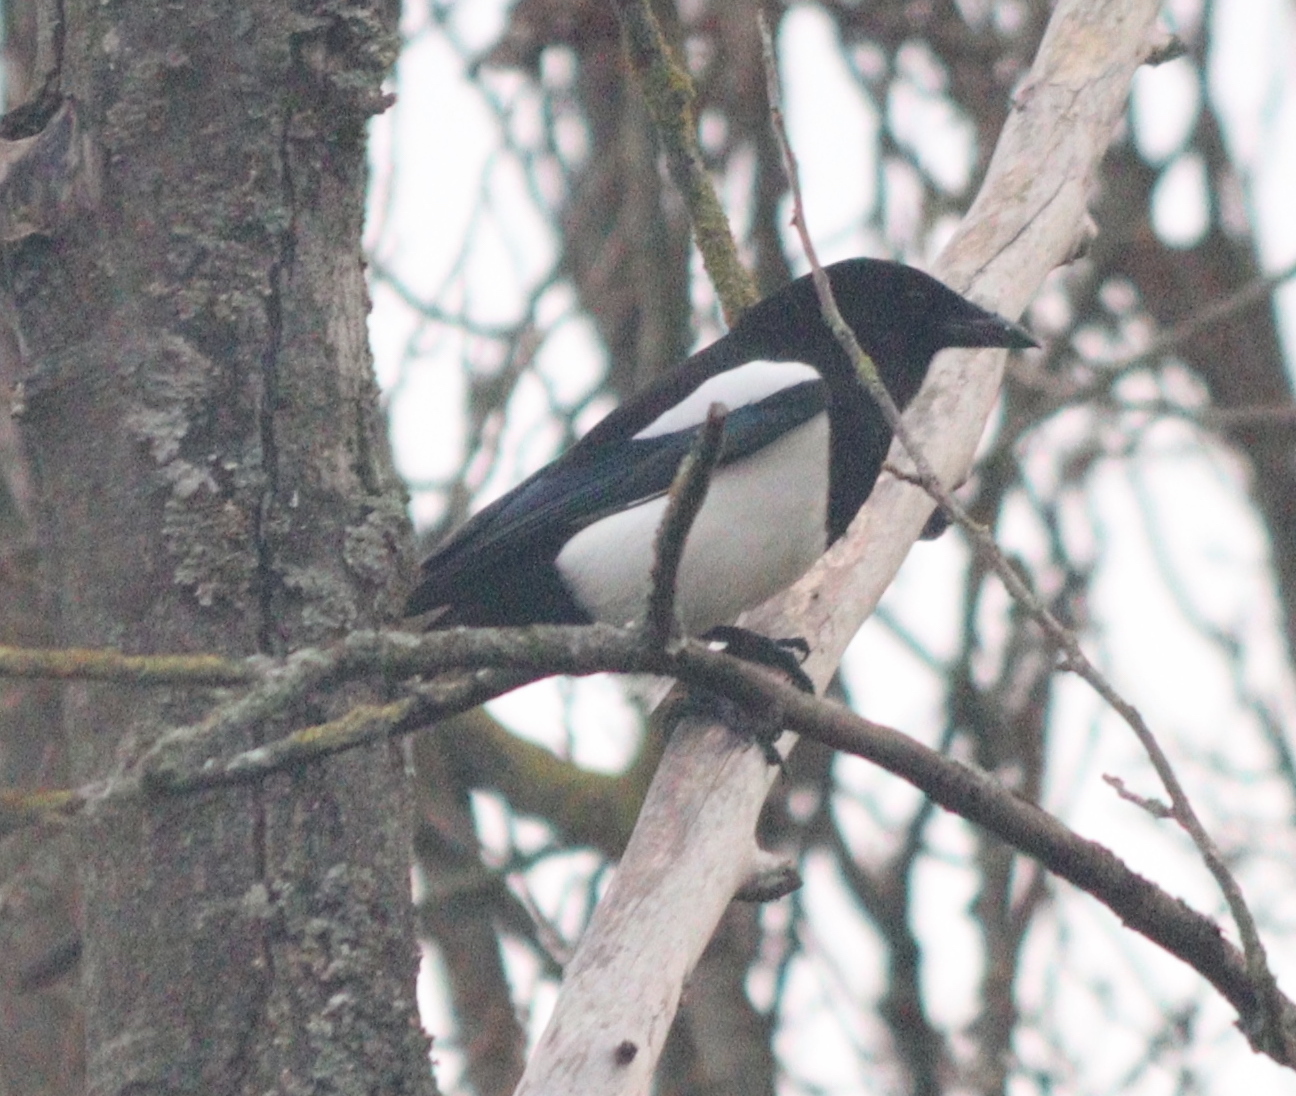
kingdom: Animalia
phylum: Chordata
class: Aves
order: Passeriformes
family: Corvidae
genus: Pica
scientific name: Pica pica
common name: Eurasian magpie
